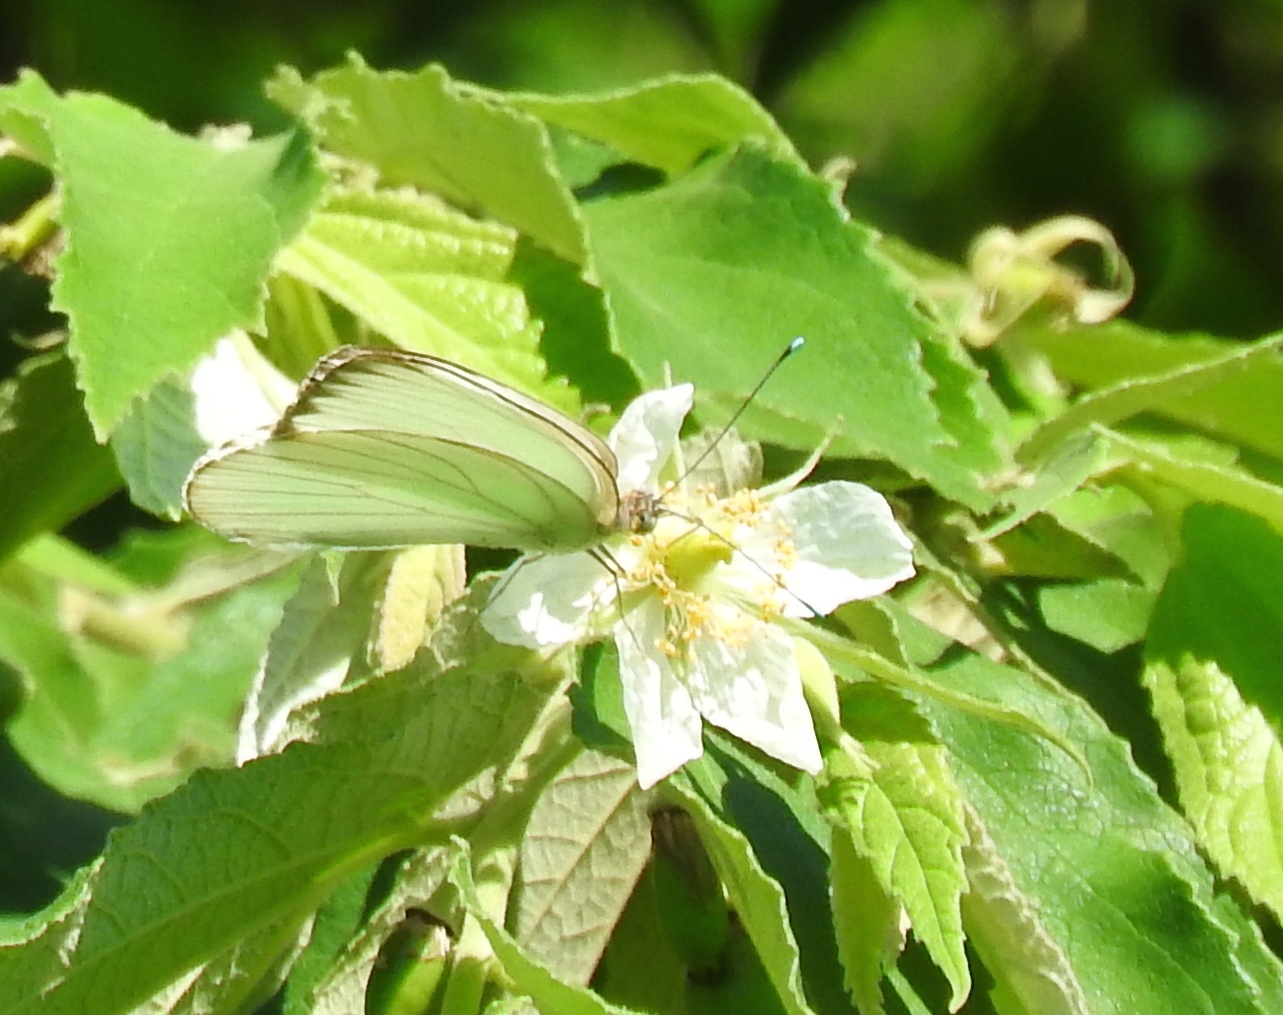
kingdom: Plantae
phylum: Tracheophyta
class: Magnoliopsida
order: Malvales
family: Muntingiaceae
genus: Muntingia
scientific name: Muntingia calabura
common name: Strawberrytree
